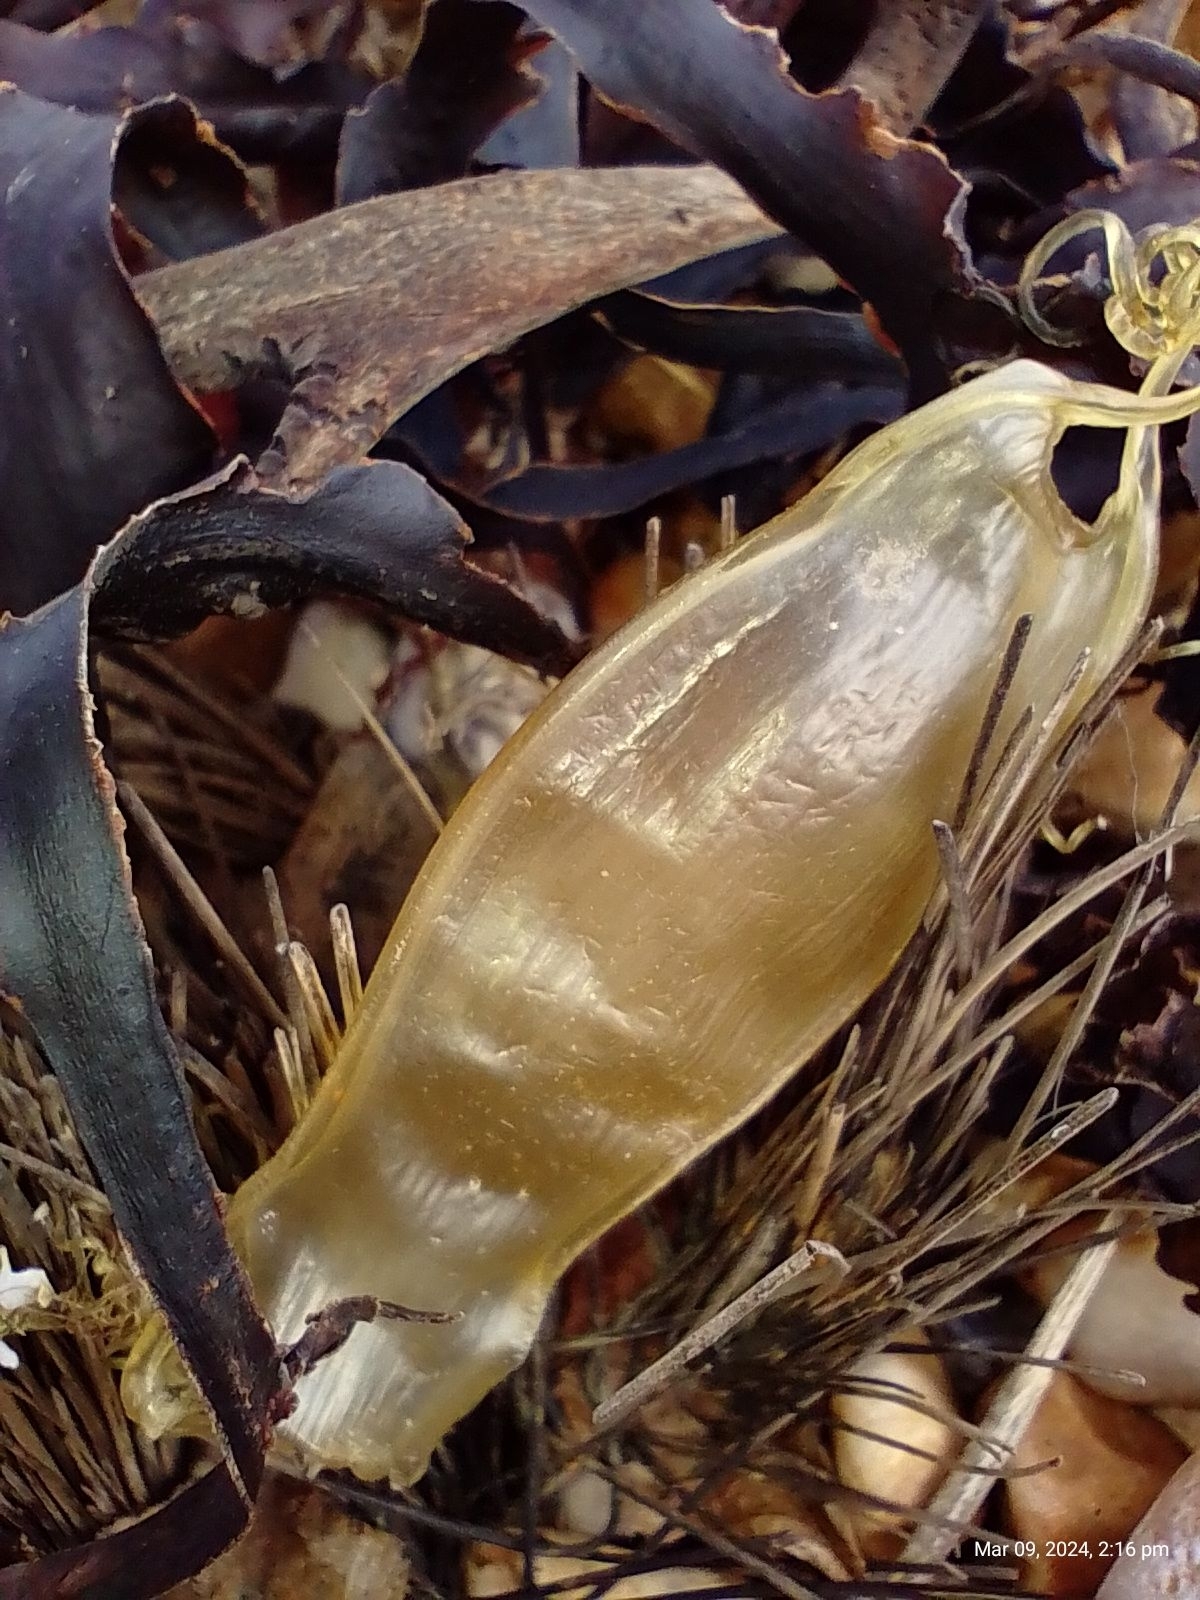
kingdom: Animalia
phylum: Chordata
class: Elasmobranchii
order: Carcharhiniformes
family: Scyliorhinidae
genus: Scyliorhinus
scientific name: Scyliorhinus canicula
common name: Lesser spotted dogfish
